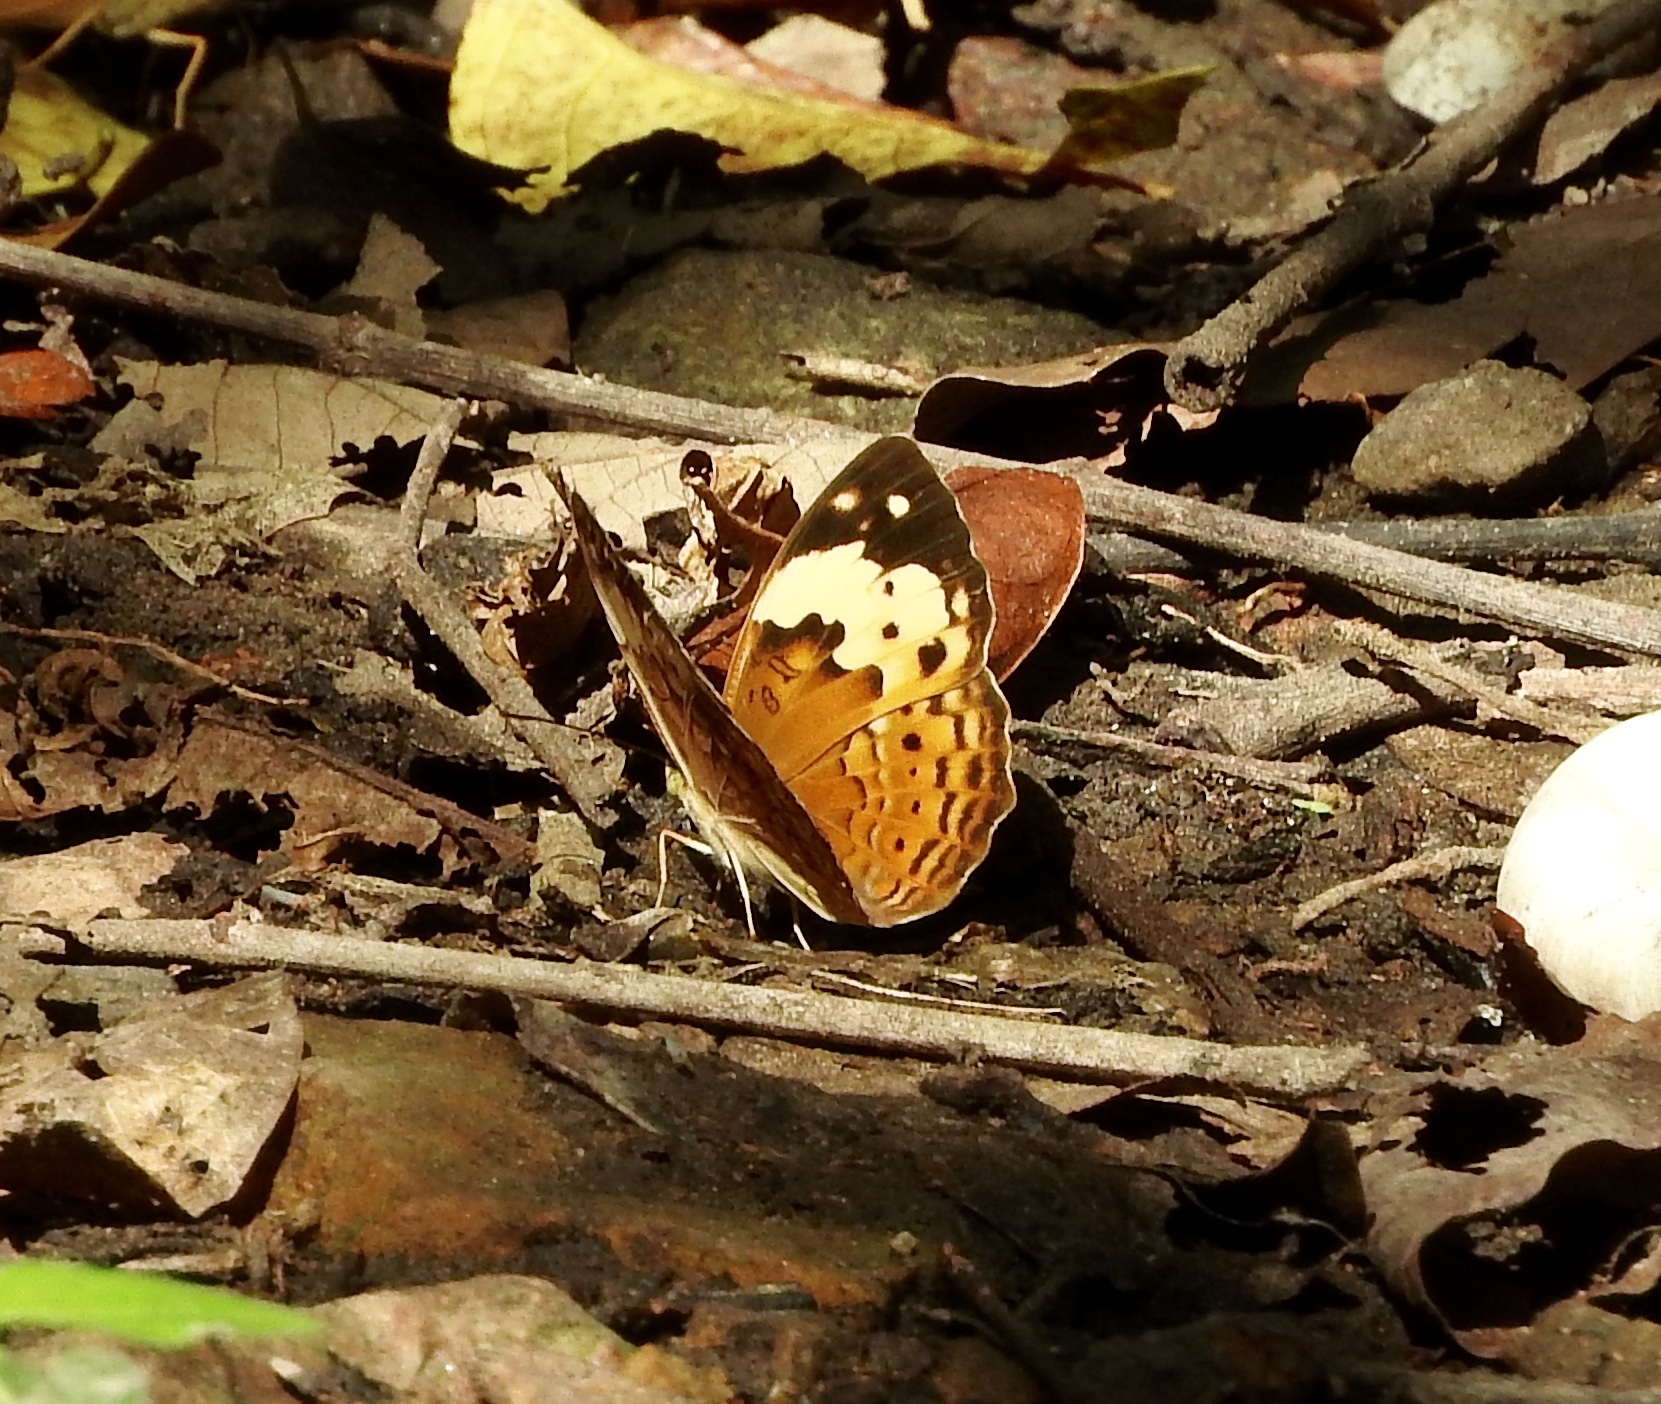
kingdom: Animalia
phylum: Arthropoda
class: Insecta
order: Lepidoptera
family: Nymphalidae
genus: Cupha
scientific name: Cupha erymanthis
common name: Rustic
